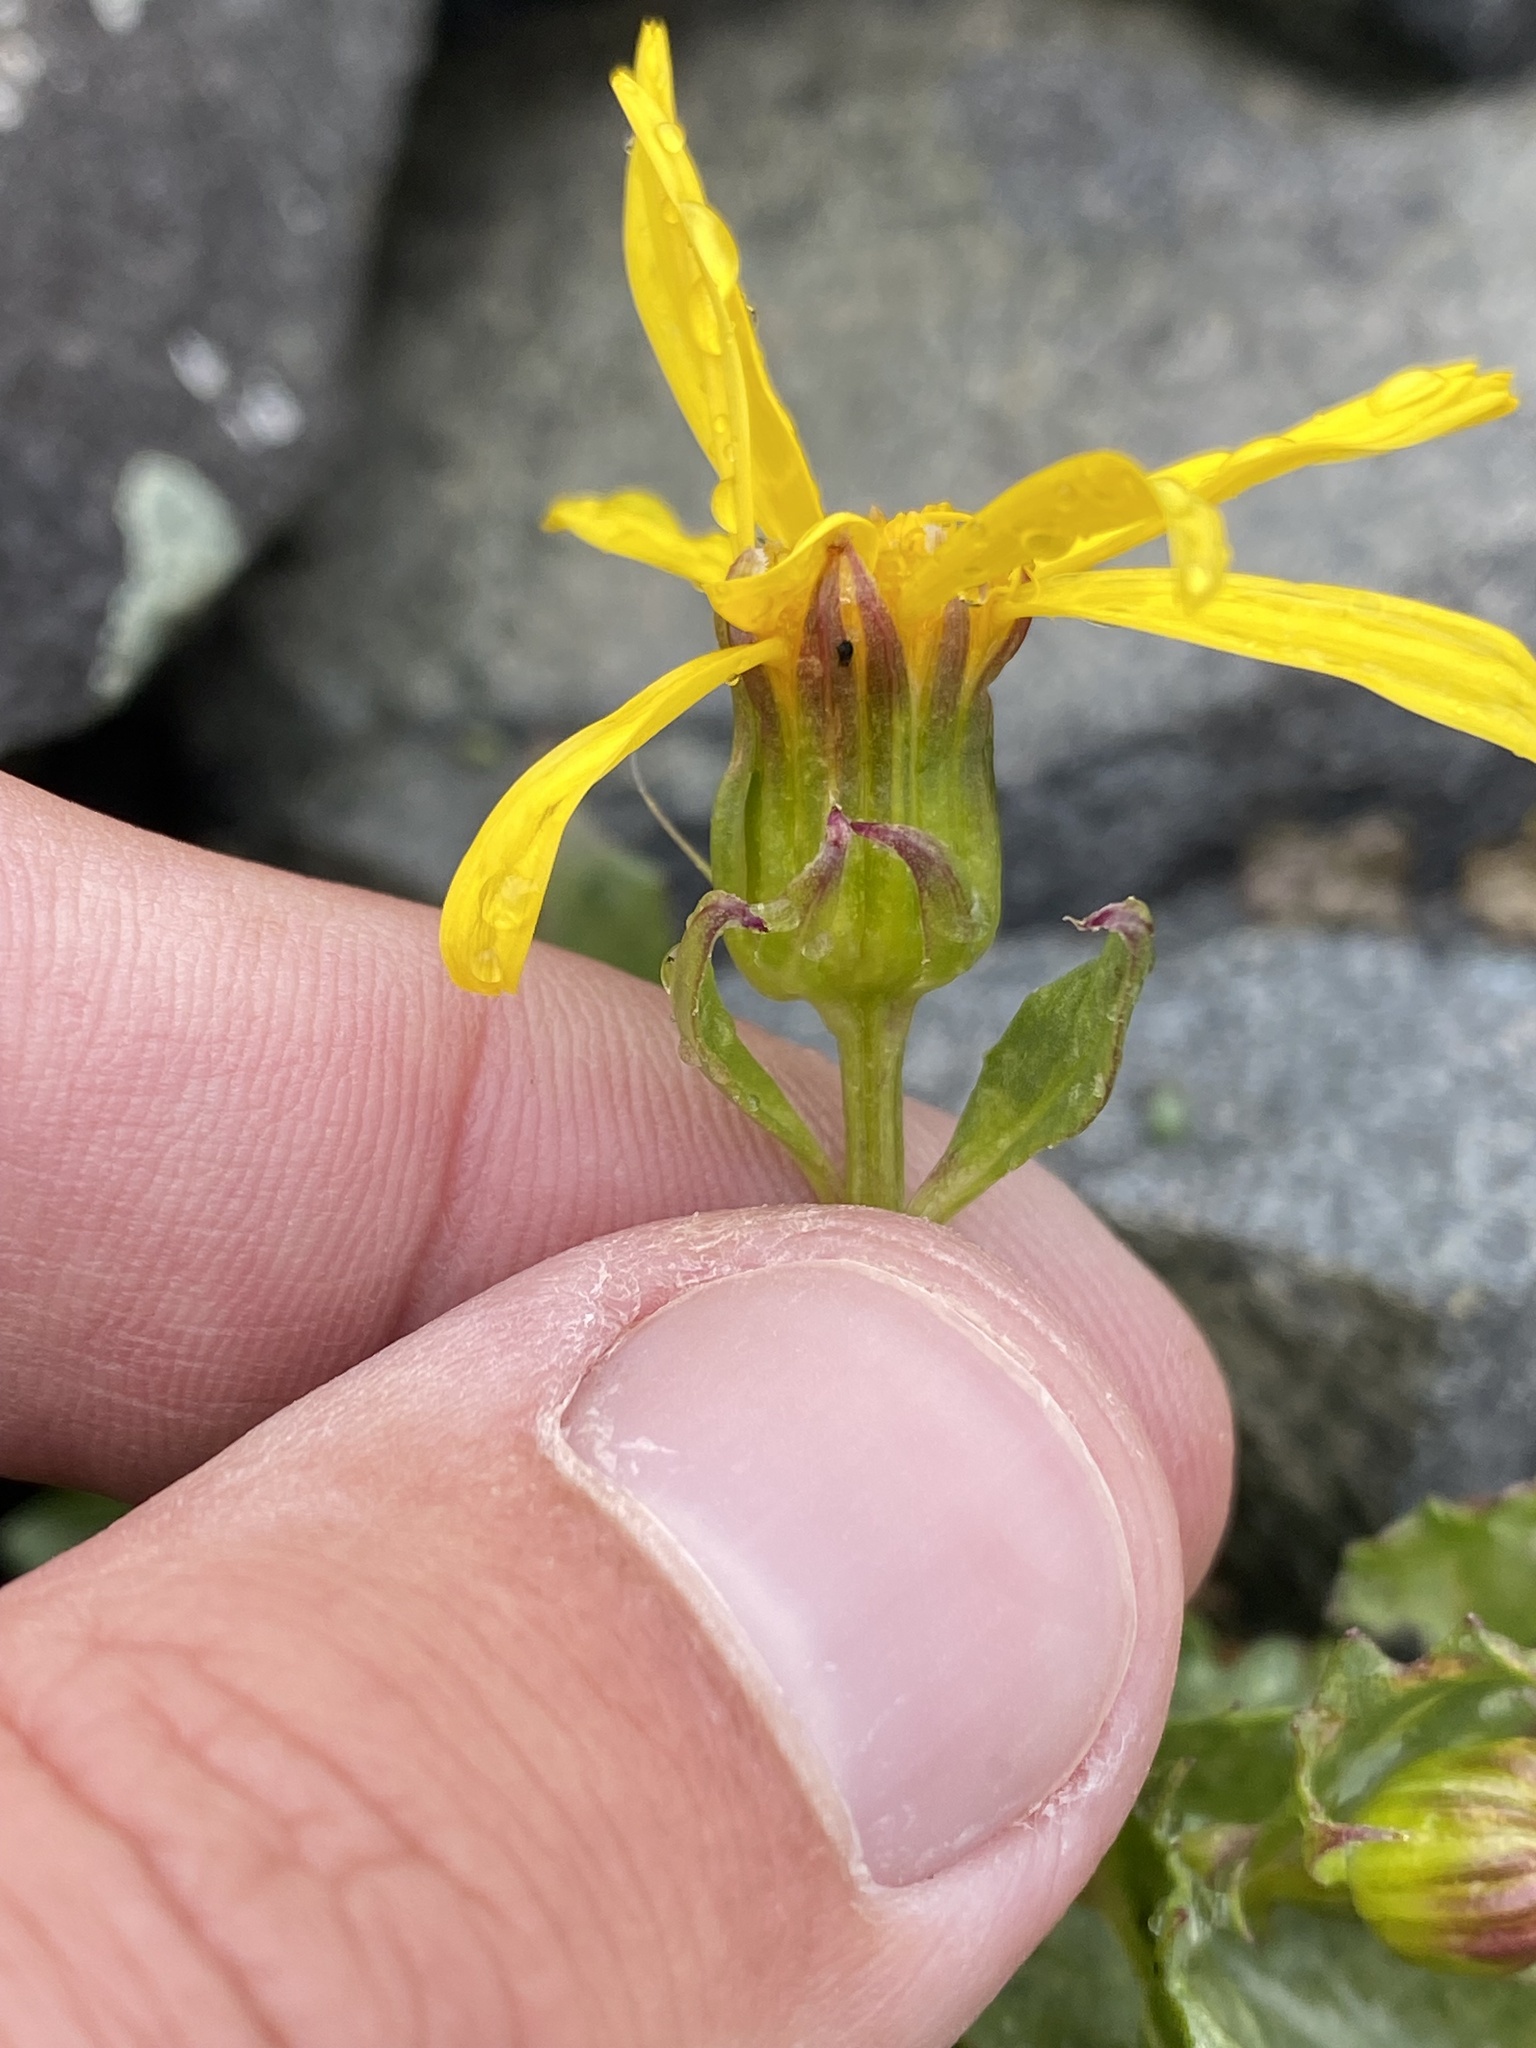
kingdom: Plantae
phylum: Tracheophyta
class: Magnoliopsida
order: Asterales
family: Asteraceae
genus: Senecio
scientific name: Senecio fremontii
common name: Fremont's groundsel
